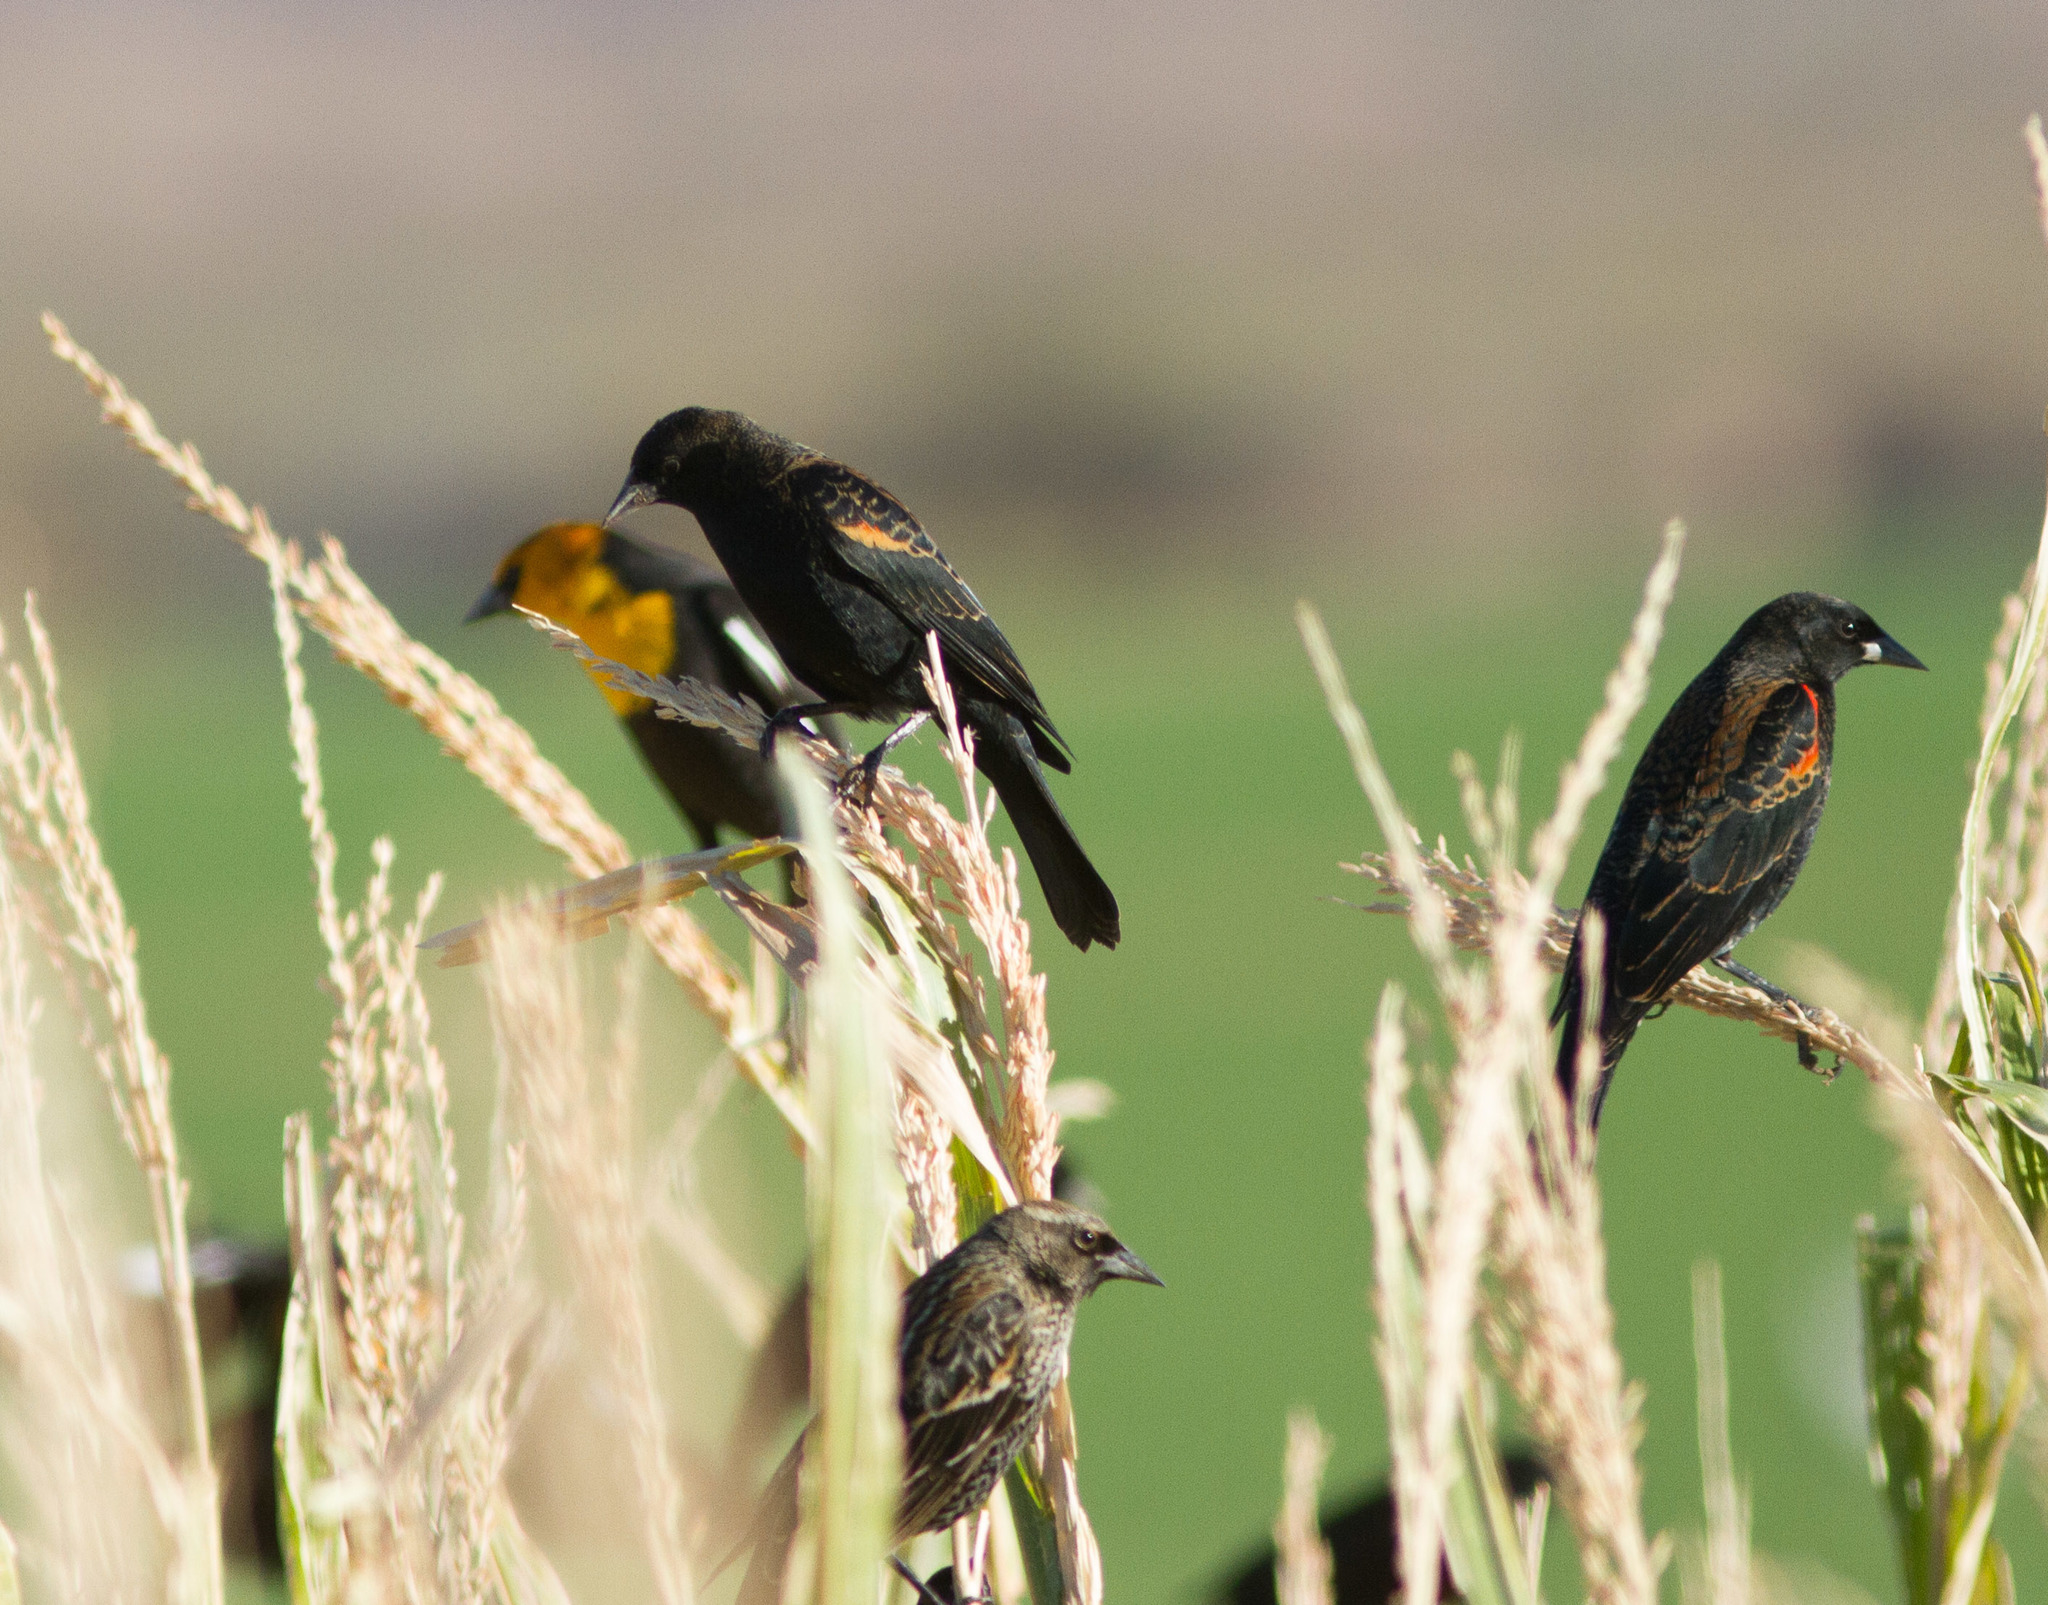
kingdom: Animalia
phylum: Chordata
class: Aves
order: Passeriformes
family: Icteridae
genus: Agelaius
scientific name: Agelaius phoeniceus
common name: Red-winged blackbird
